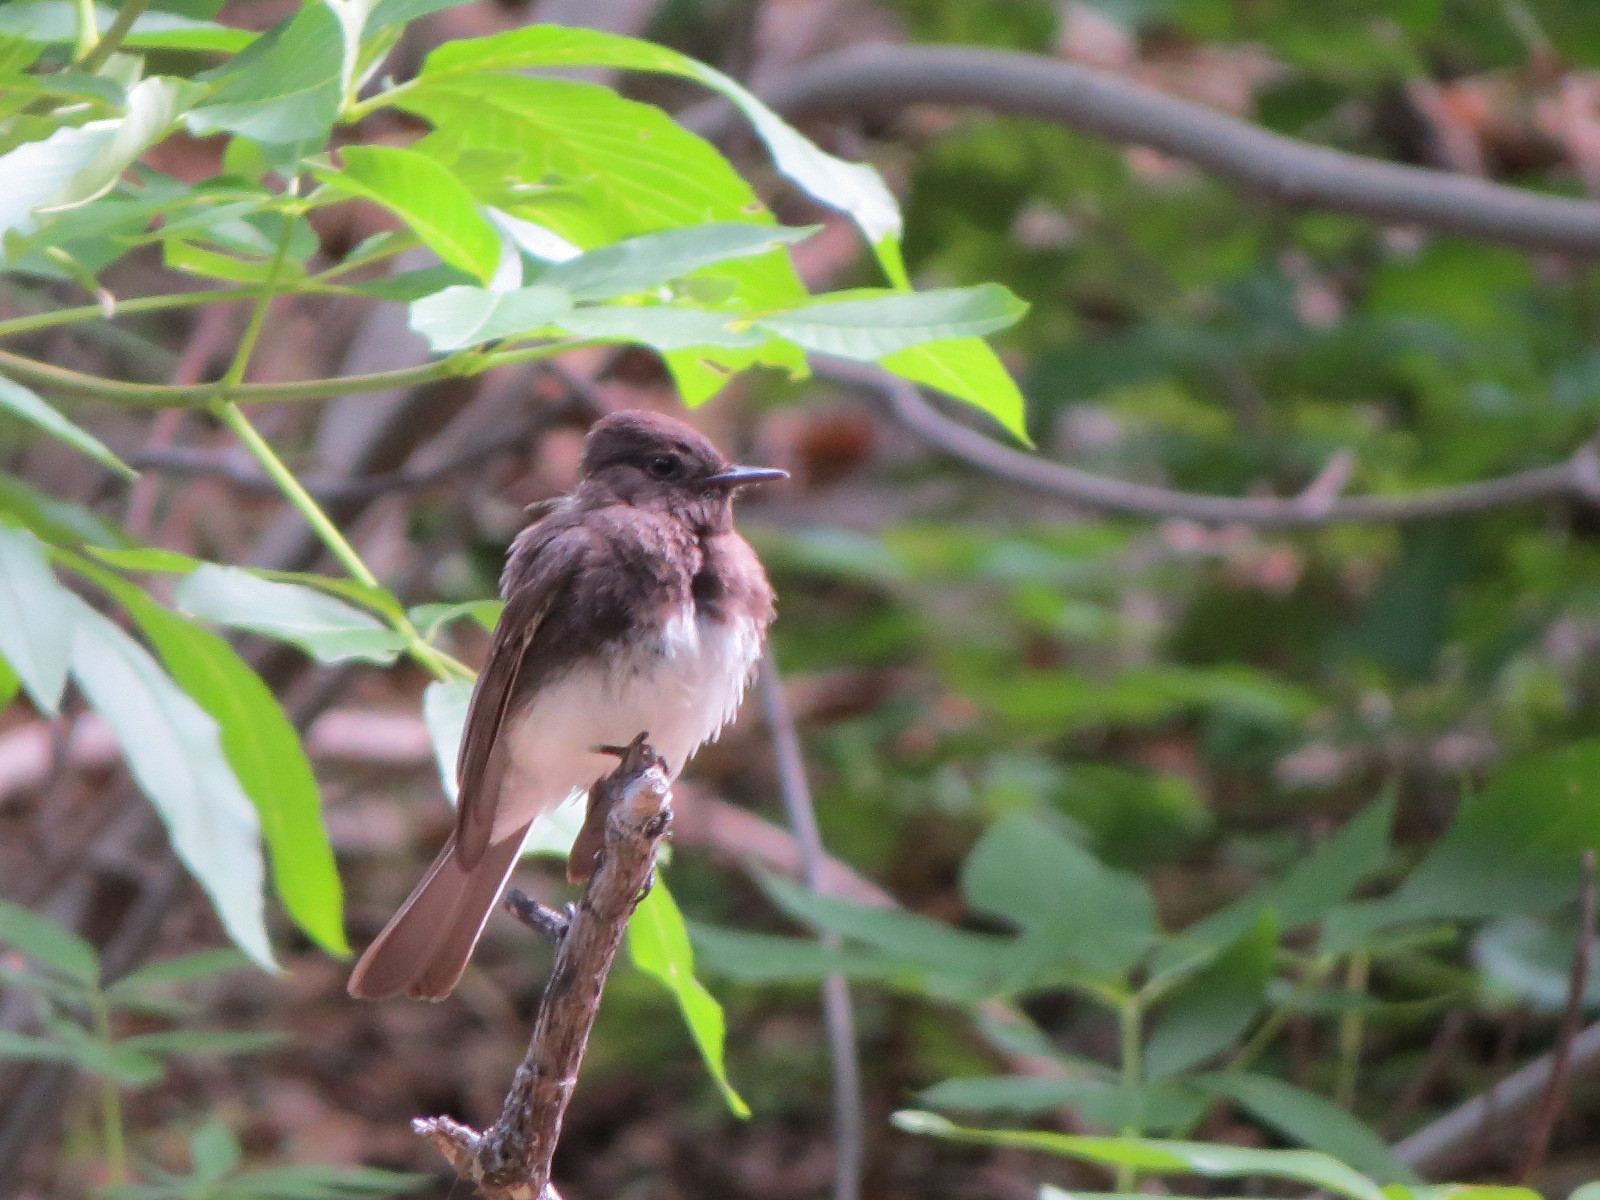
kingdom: Animalia
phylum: Chordata
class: Aves
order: Passeriformes
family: Tyrannidae
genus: Sayornis
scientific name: Sayornis nigricans
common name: Black phoebe
